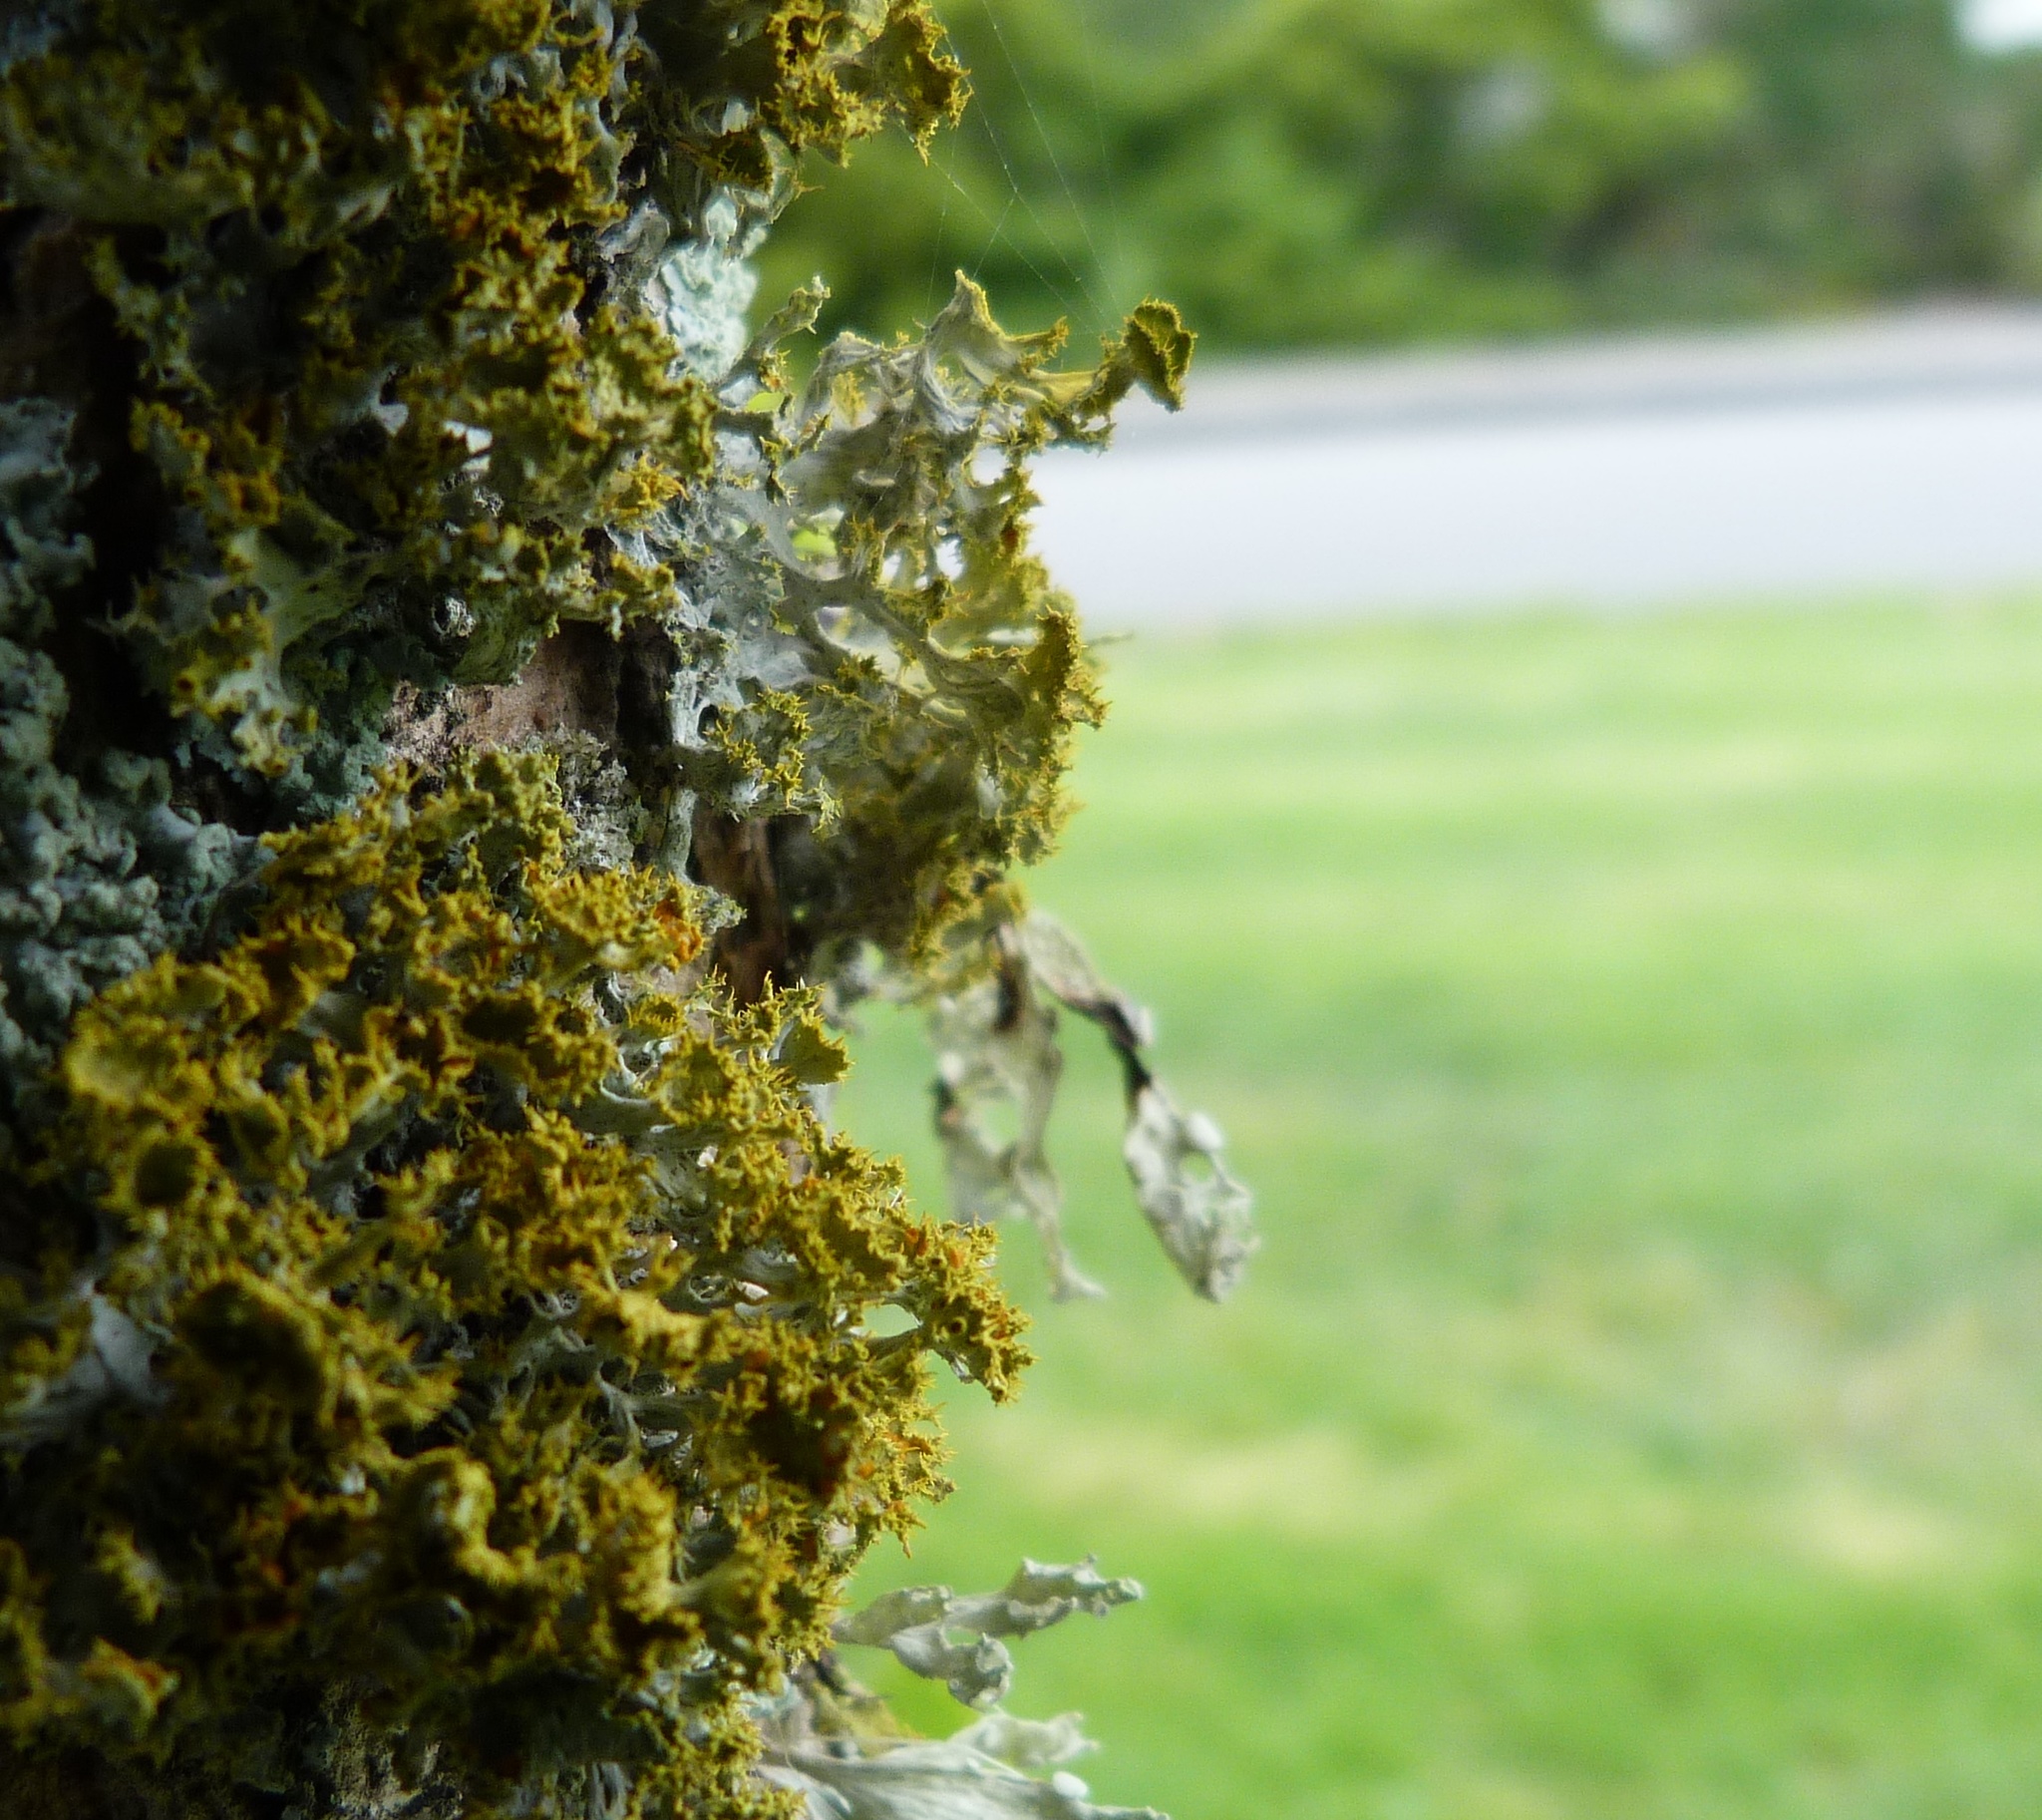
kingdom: Fungi
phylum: Ascomycota
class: Lecanoromycetes
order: Teloschistales
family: Teloschistaceae
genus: Niorma
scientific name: Niorma chrysophthalma
